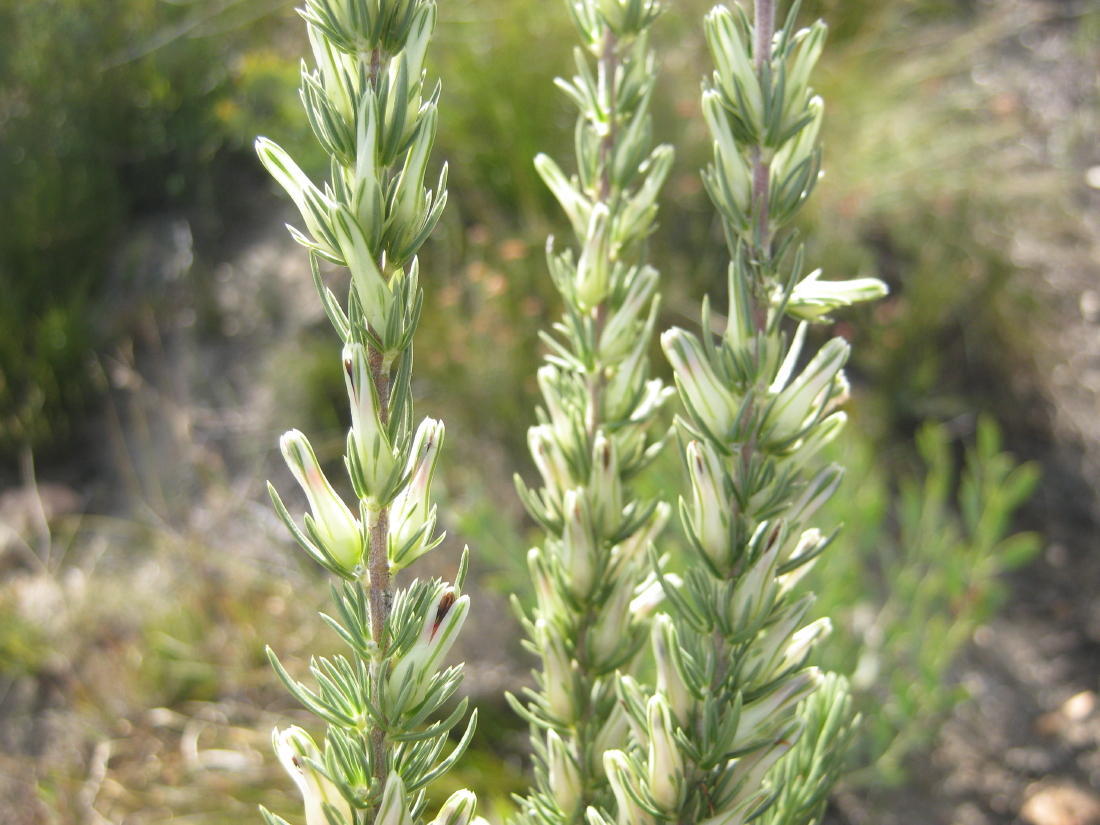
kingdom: Plantae
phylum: Tracheophyta
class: Magnoliopsida
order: Ericales
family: Ericaceae
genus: Erica
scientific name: Erica nabea
